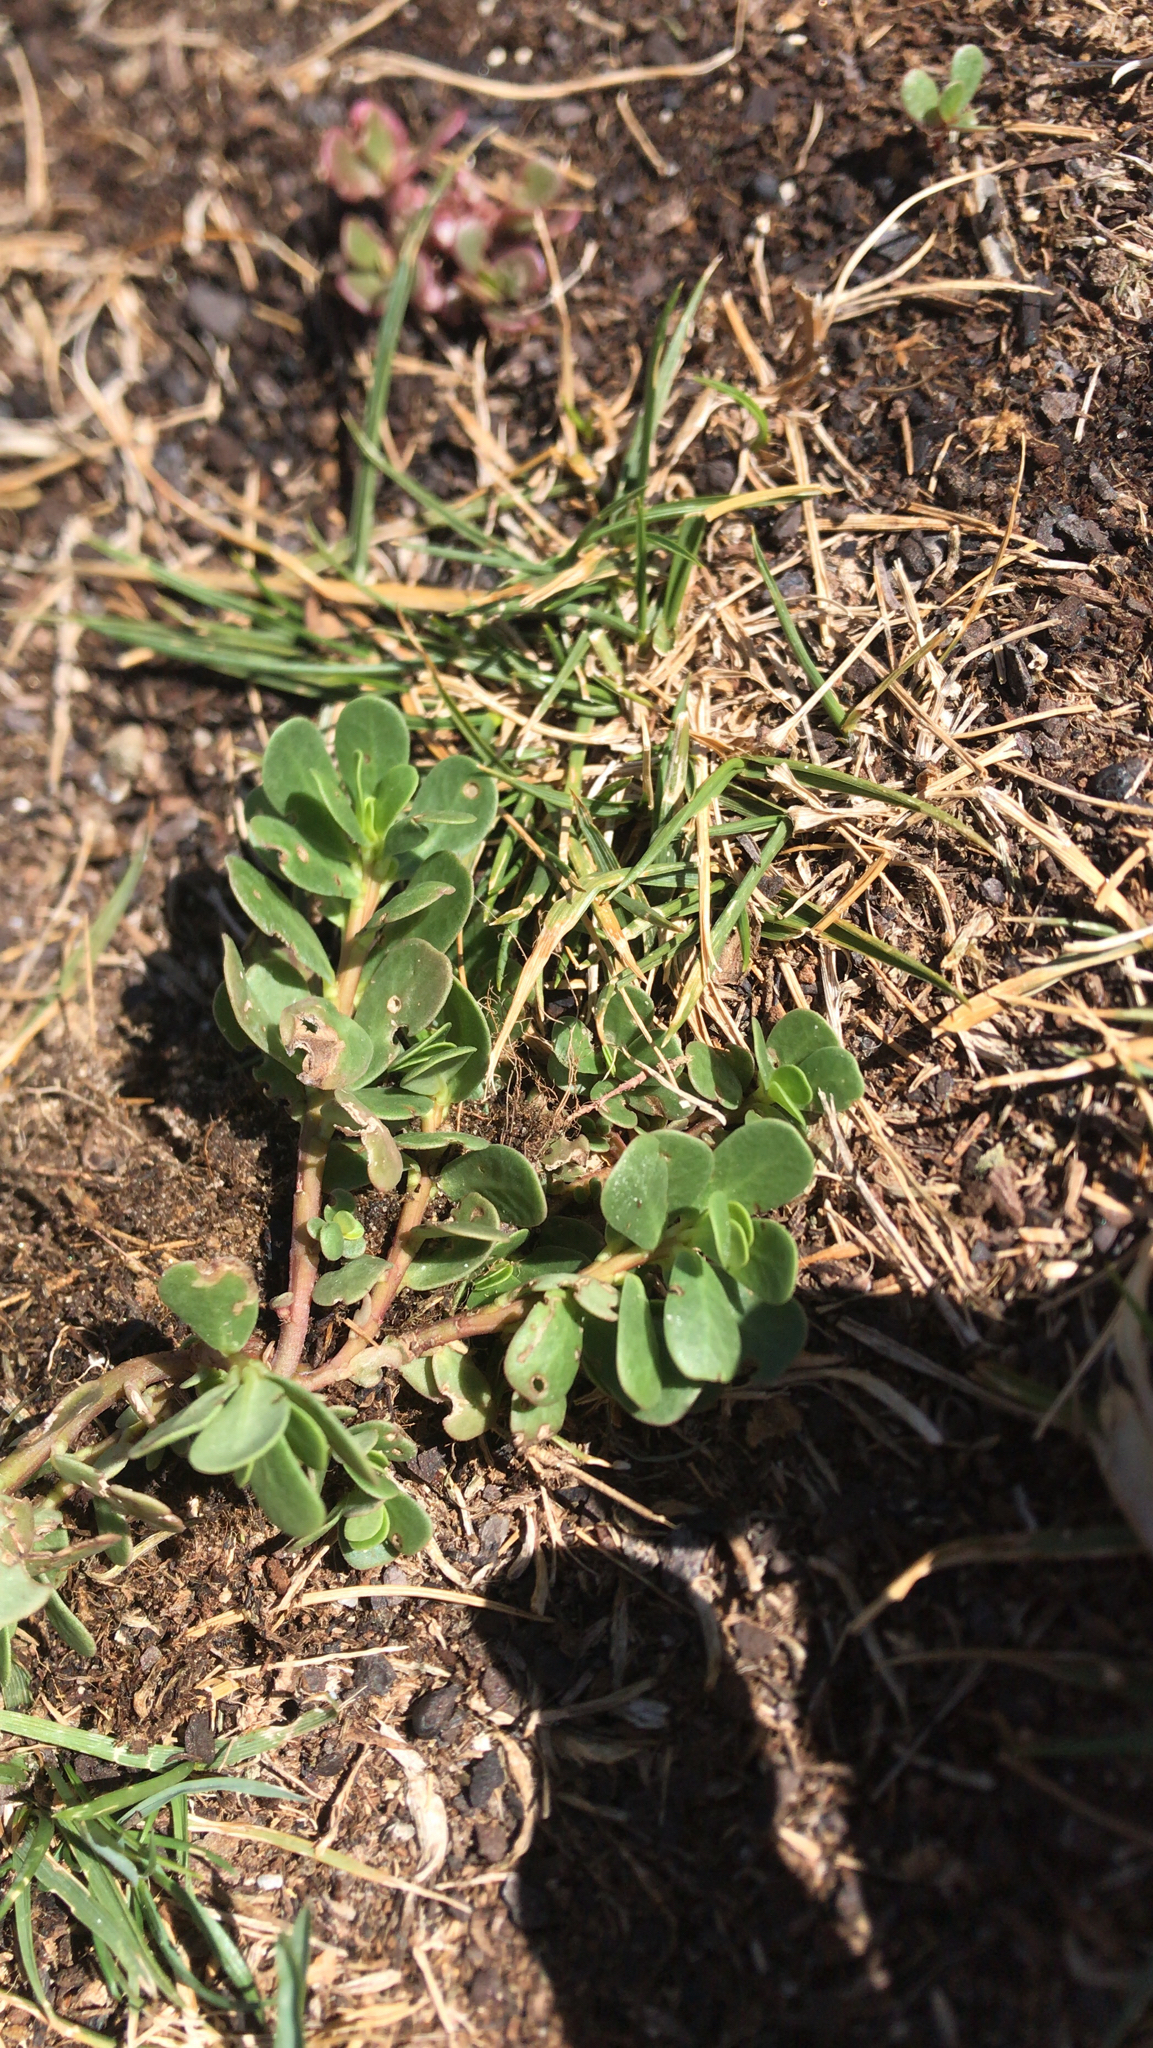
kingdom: Plantae
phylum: Tracheophyta
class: Magnoliopsida
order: Caryophyllales
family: Portulacaceae
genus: Portulaca
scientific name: Portulaca oleracea
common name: Common purslane
